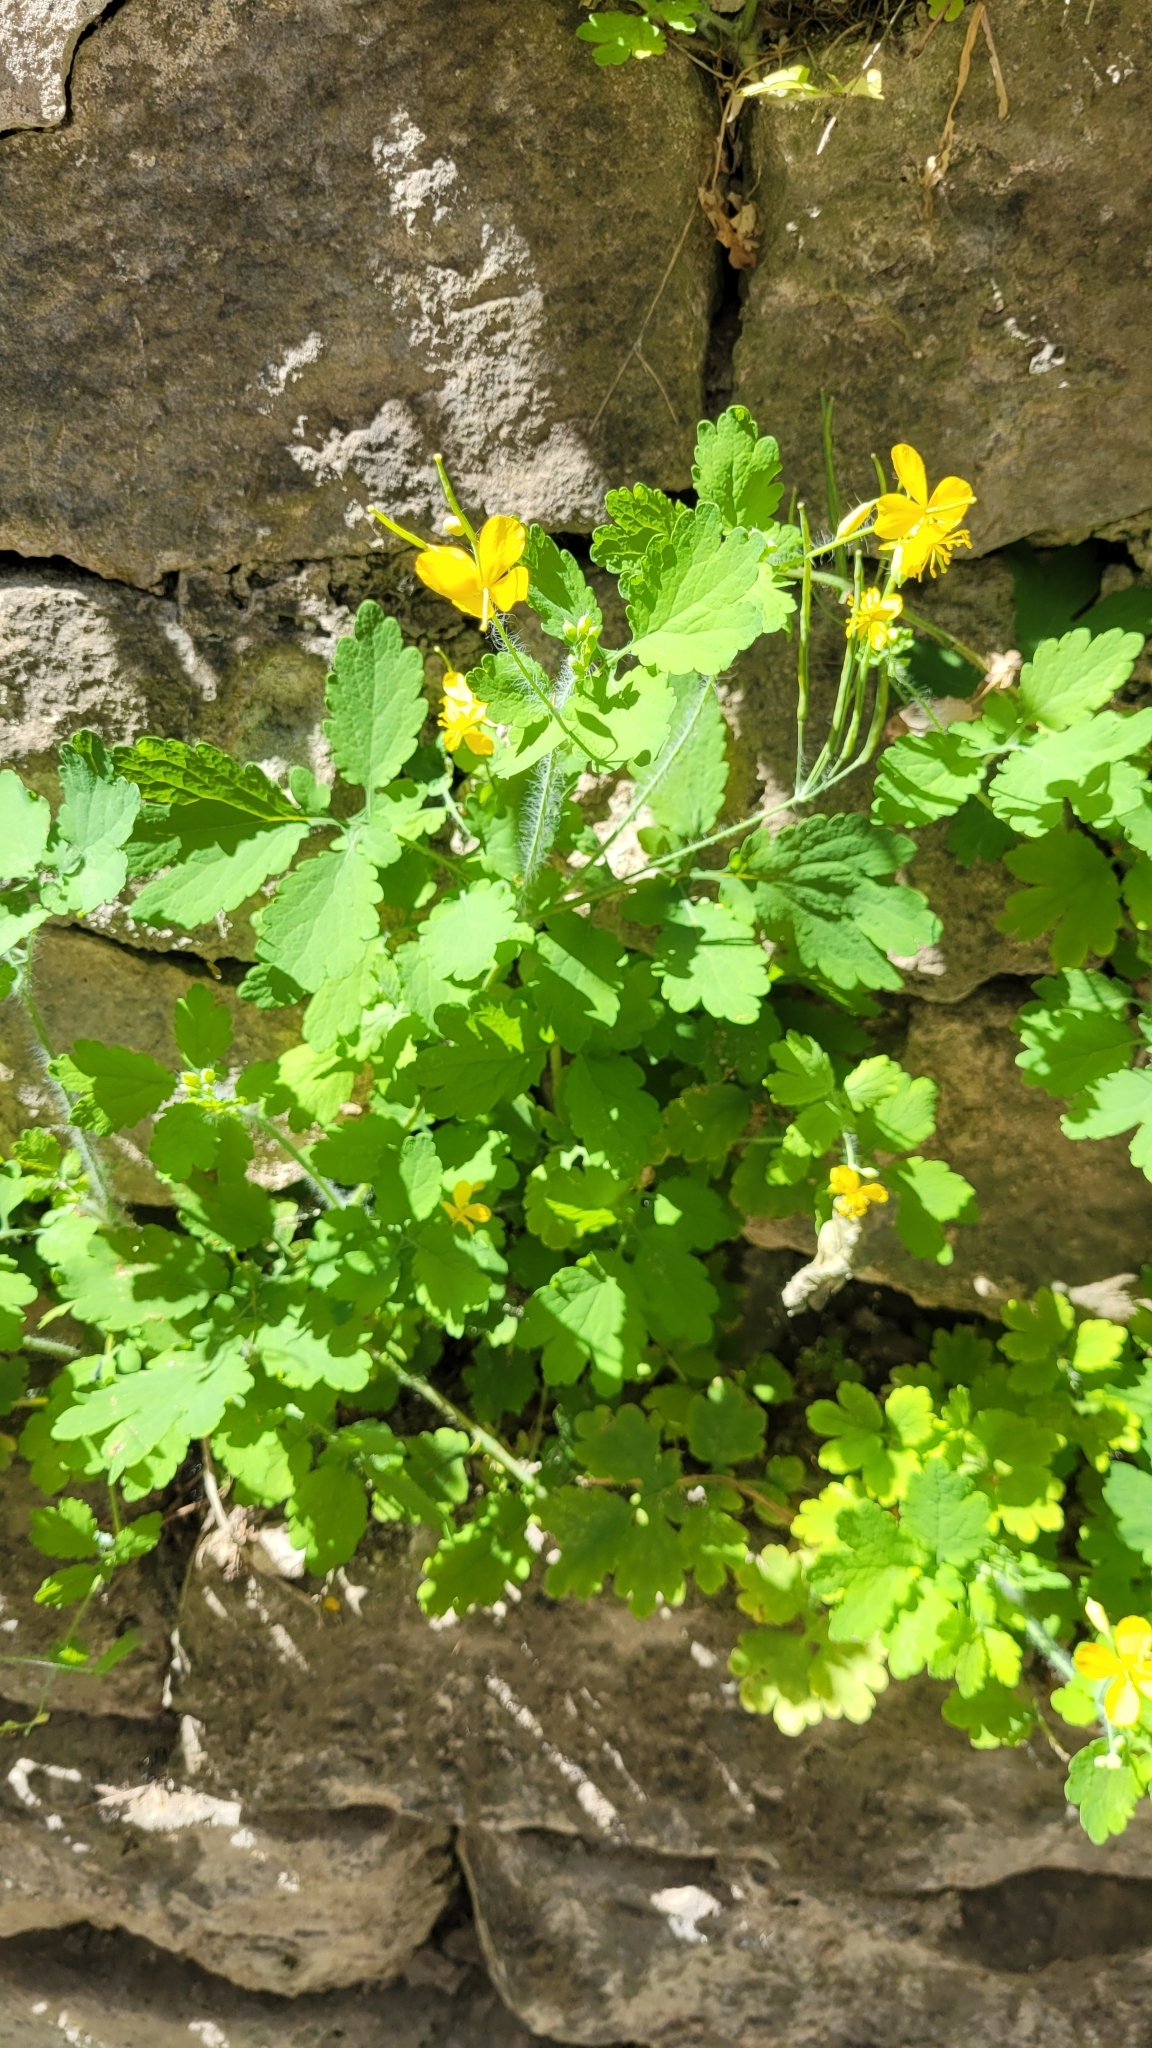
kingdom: Plantae
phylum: Tracheophyta
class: Magnoliopsida
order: Ranunculales
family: Papaveraceae
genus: Chelidonium
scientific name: Chelidonium majus
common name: Greater celandine
